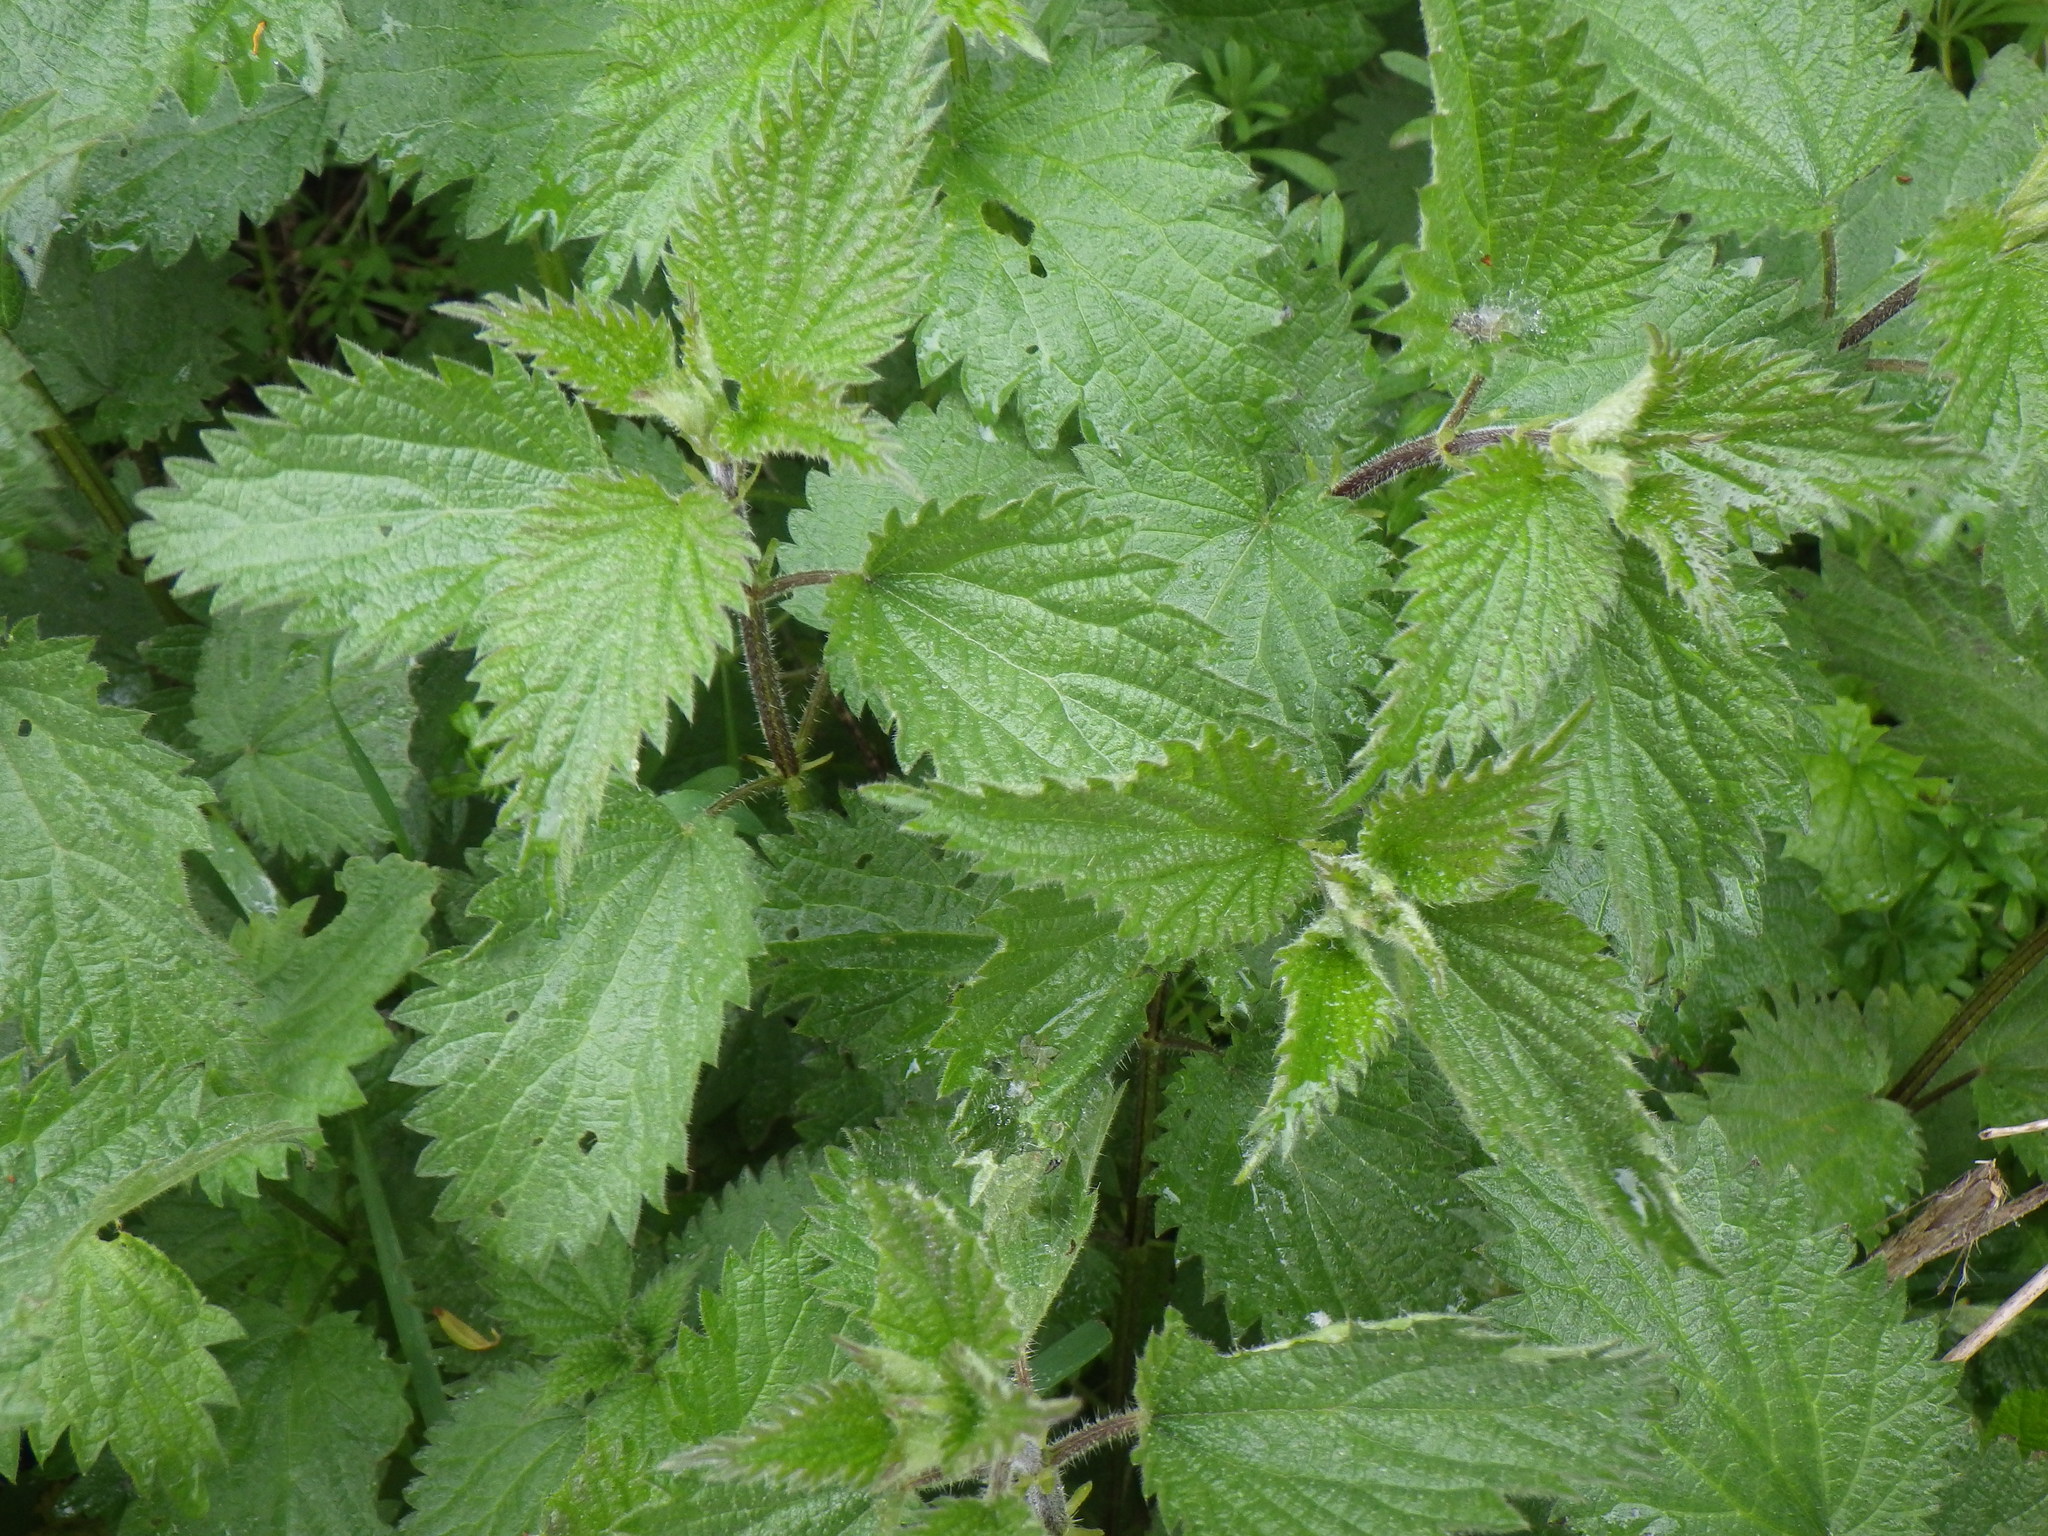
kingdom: Plantae
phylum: Tracheophyta
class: Magnoliopsida
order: Rosales
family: Urticaceae
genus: Urtica
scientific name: Urtica dioica
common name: Common nettle
